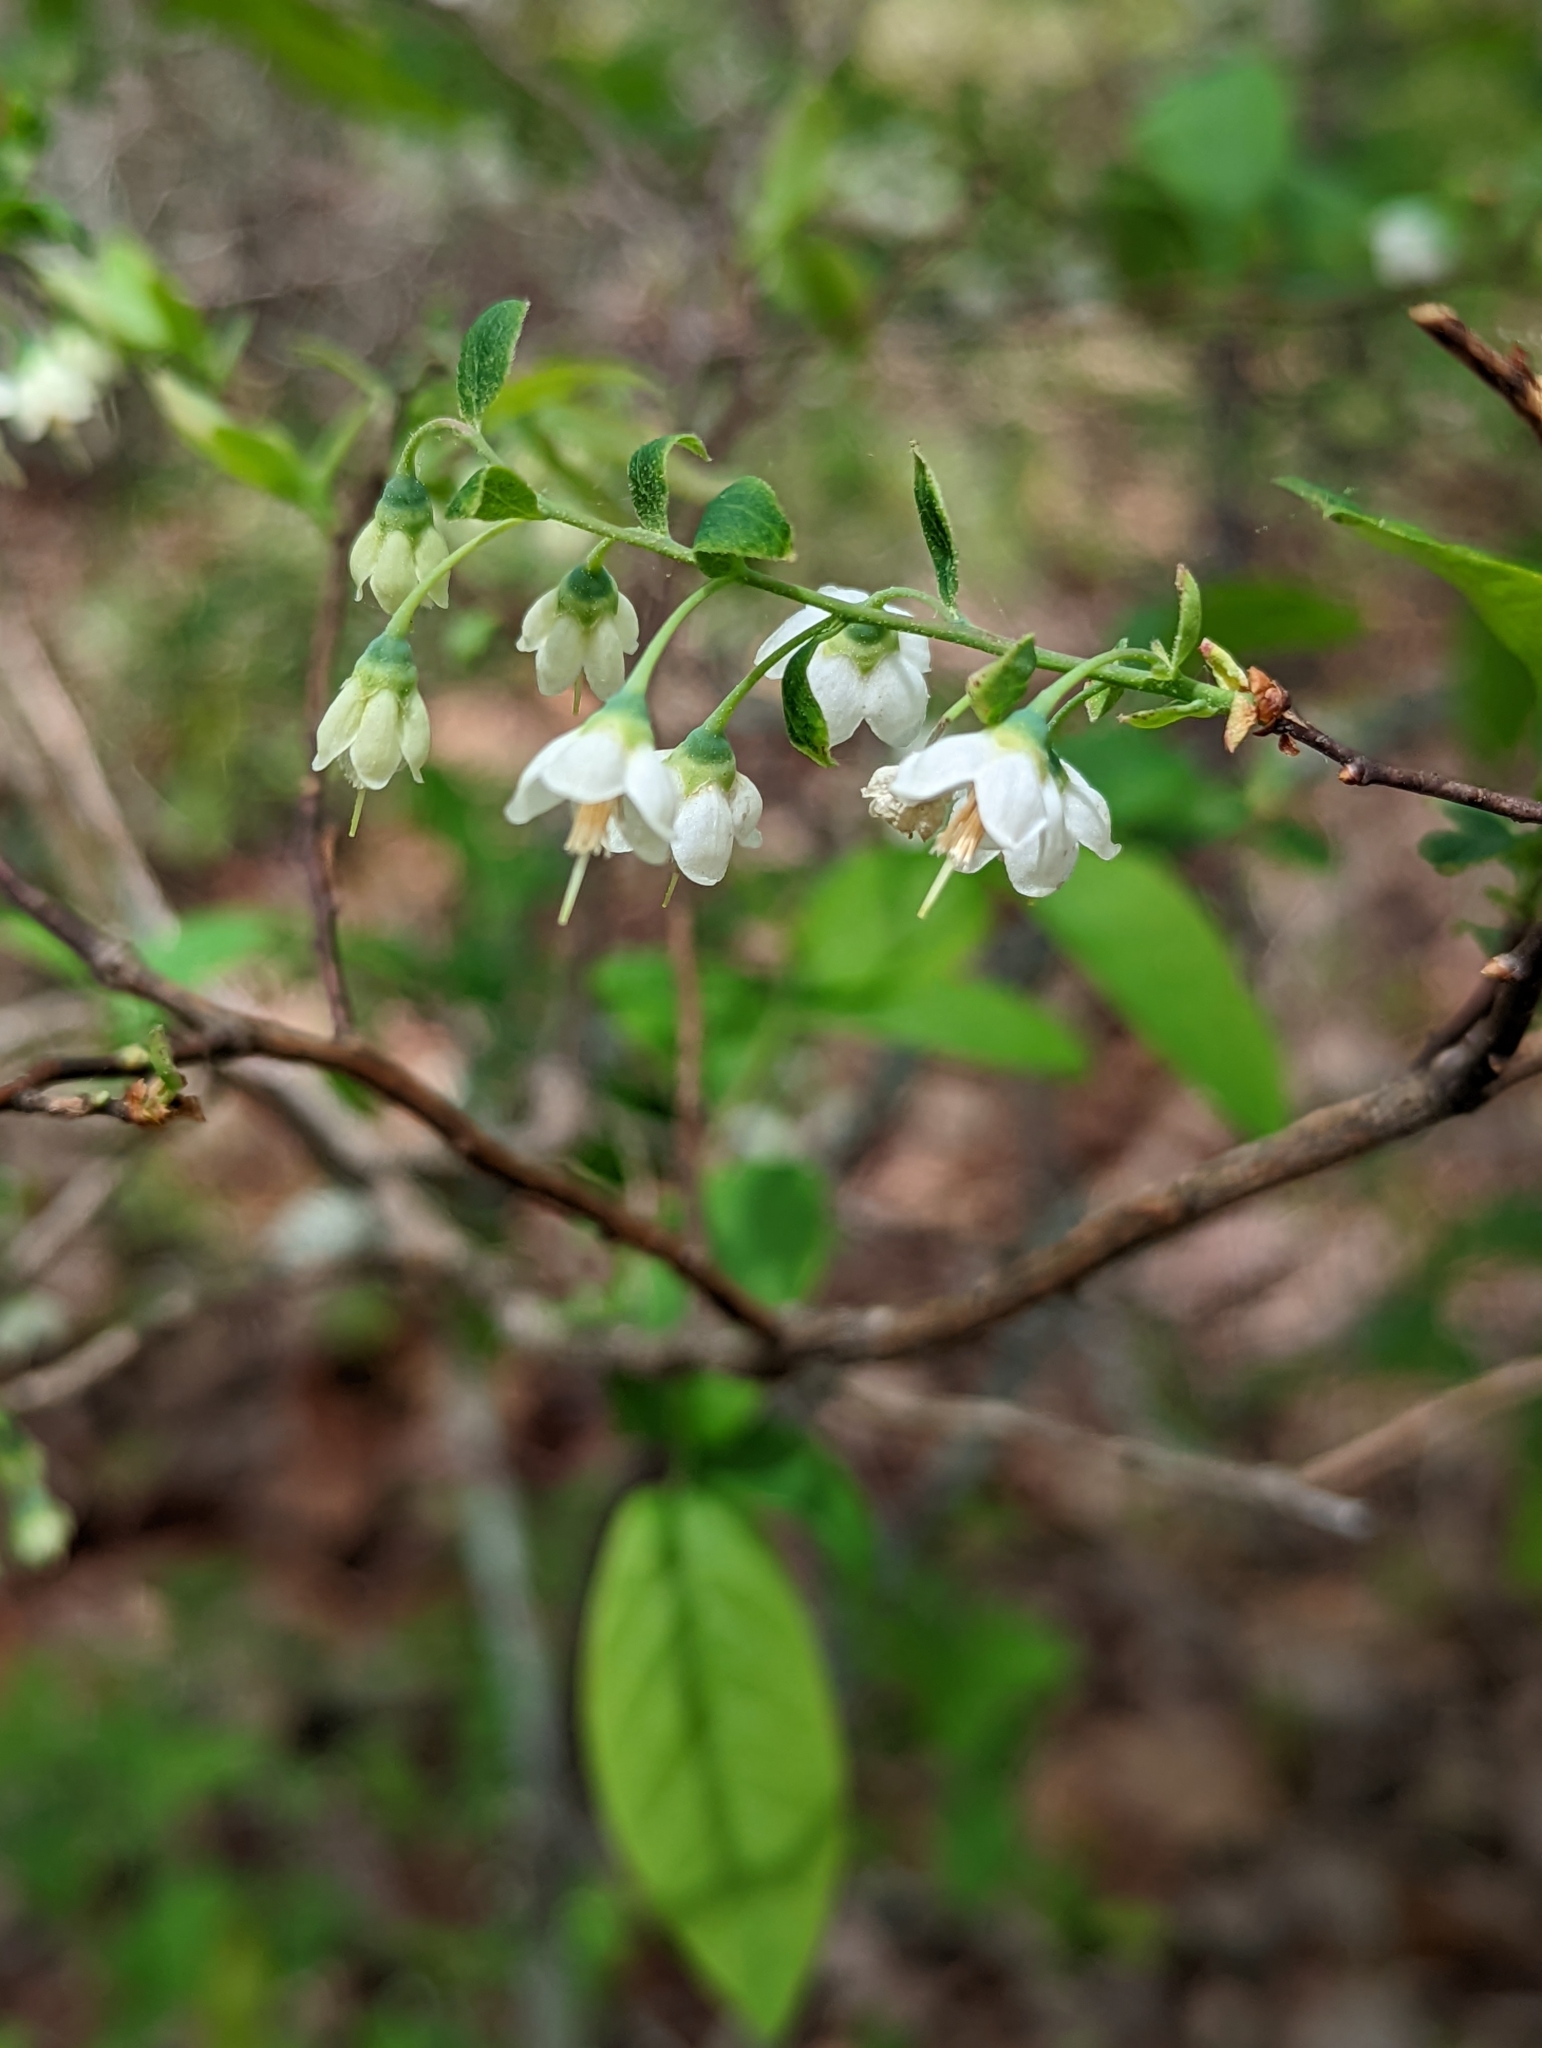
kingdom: Plantae
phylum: Tracheophyta
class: Magnoliopsida
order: Ericales
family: Ericaceae
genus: Vaccinium
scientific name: Vaccinium stamineum
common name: Deerberry
